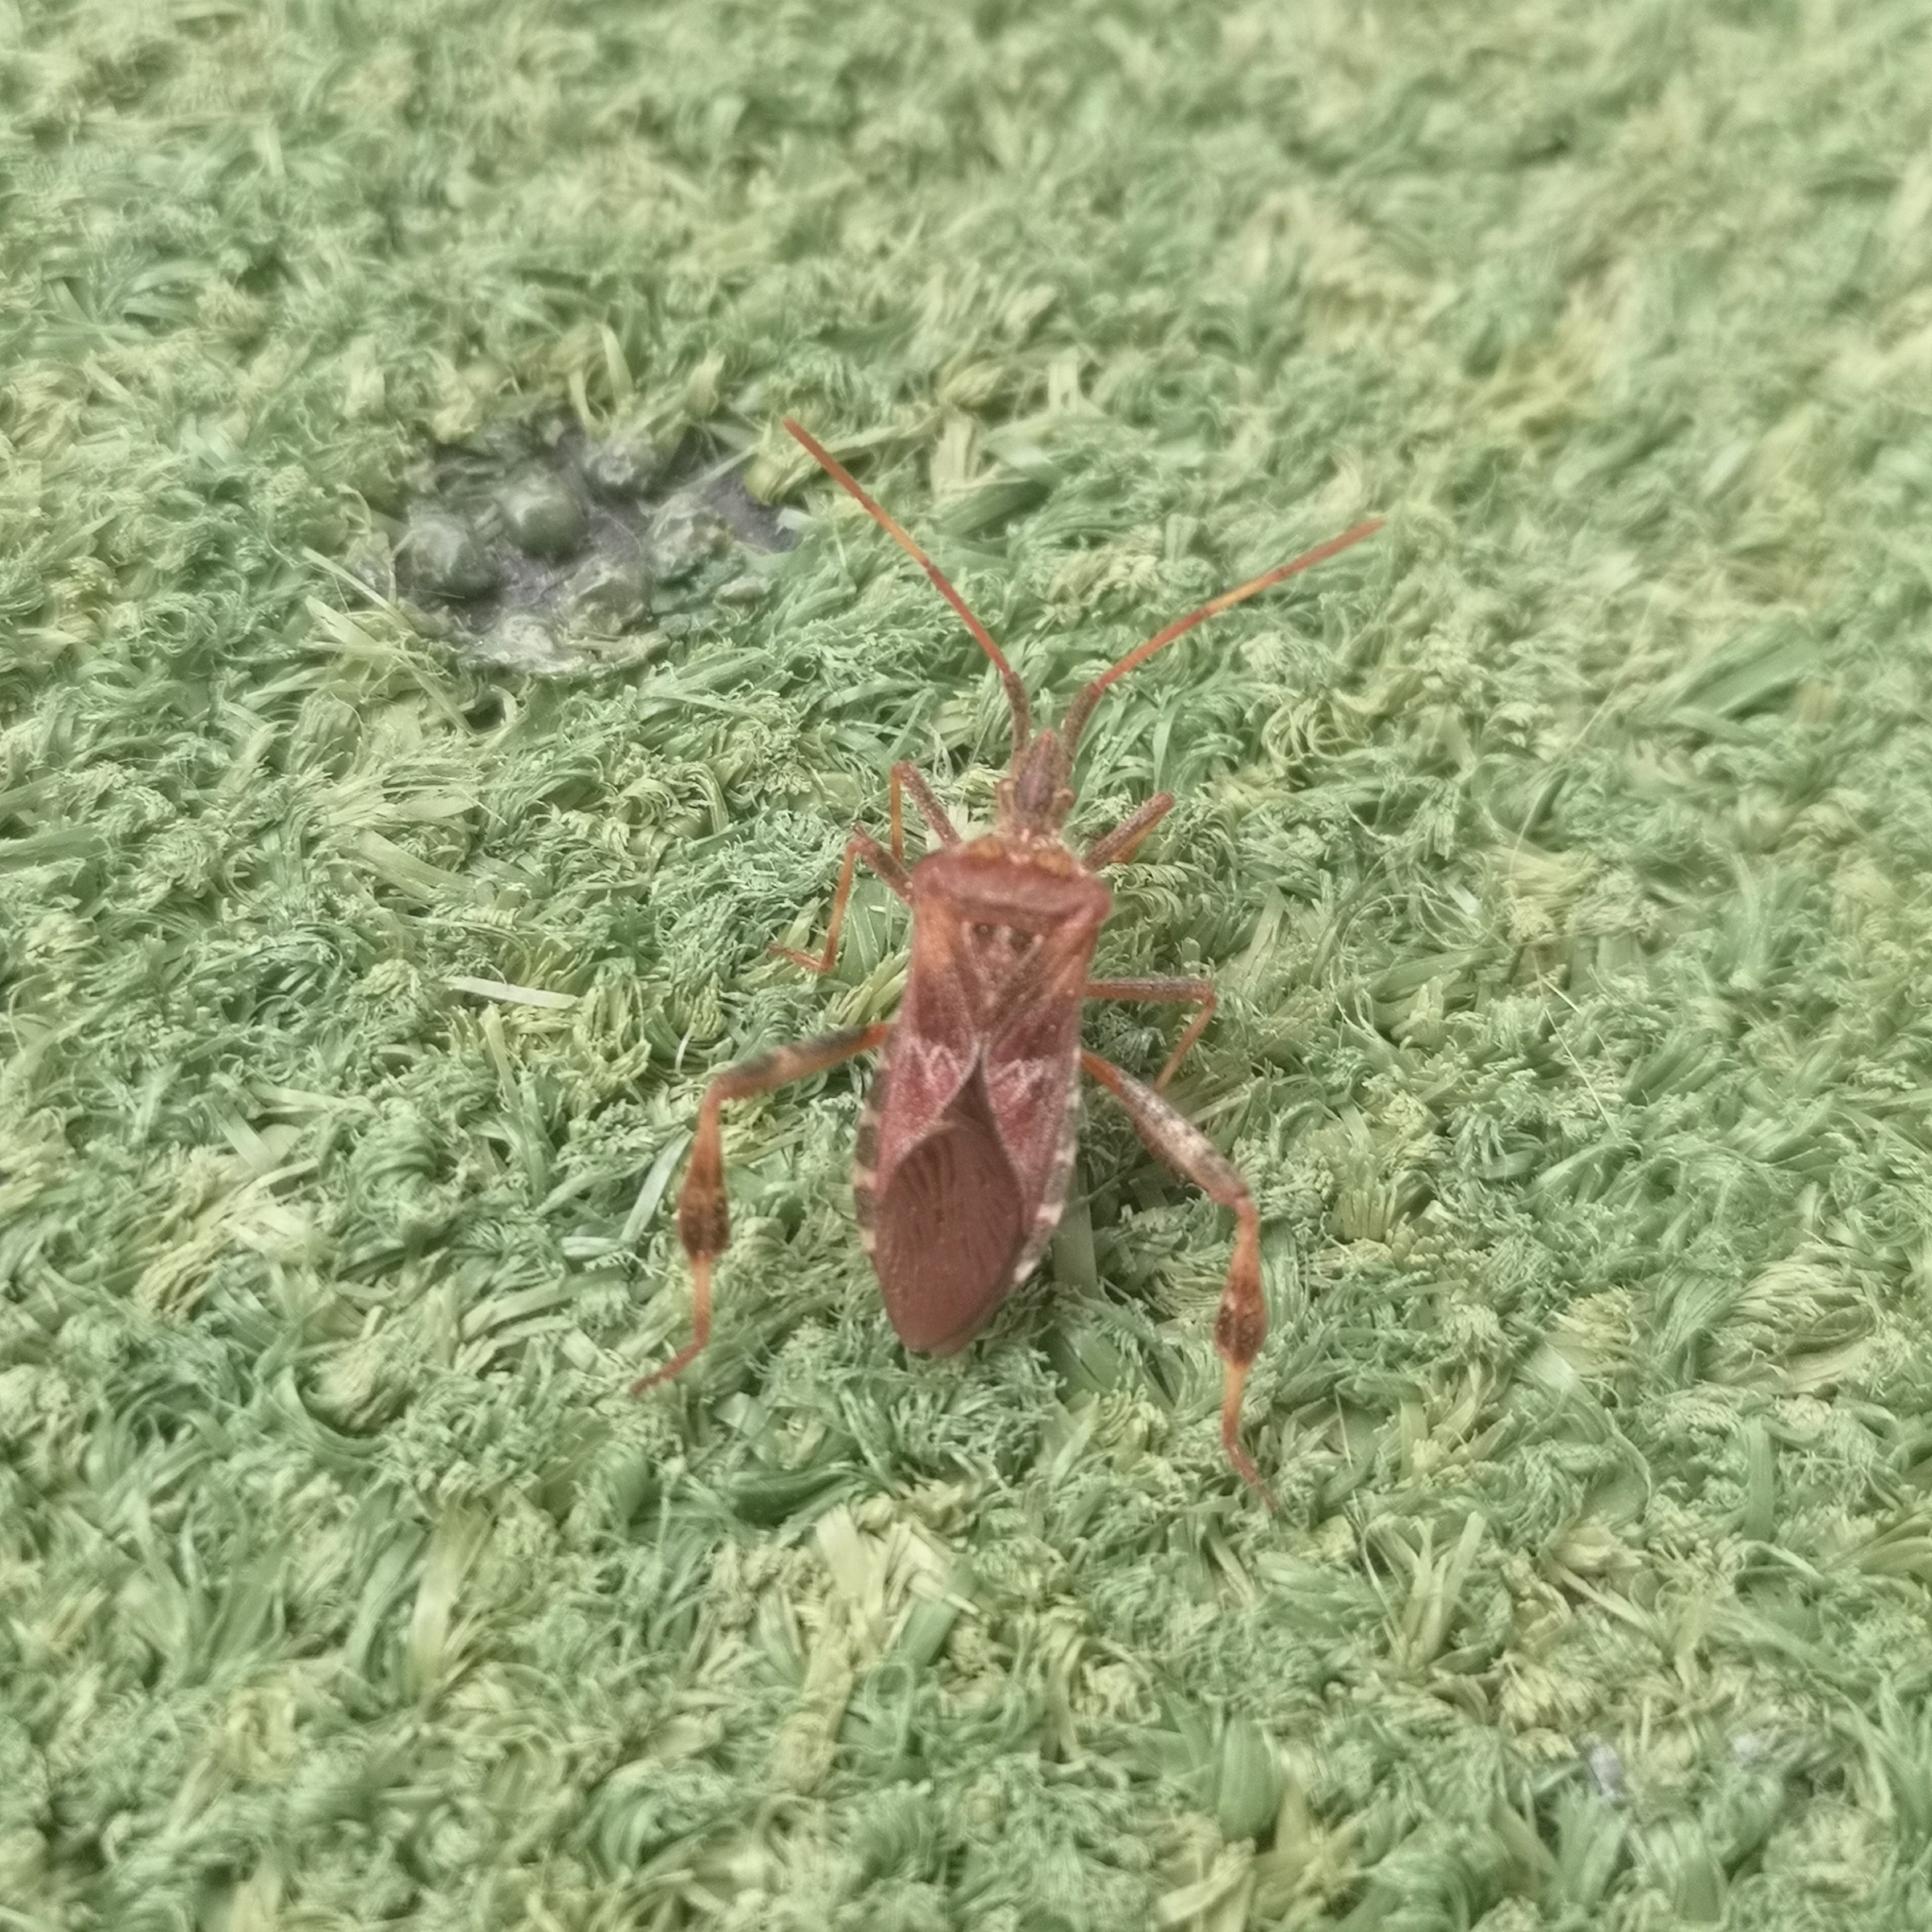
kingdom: Animalia
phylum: Arthropoda
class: Insecta
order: Hemiptera
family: Coreidae
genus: Leptoglossus
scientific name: Leptoglossus occidentalis
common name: Western conifer-seed bug
